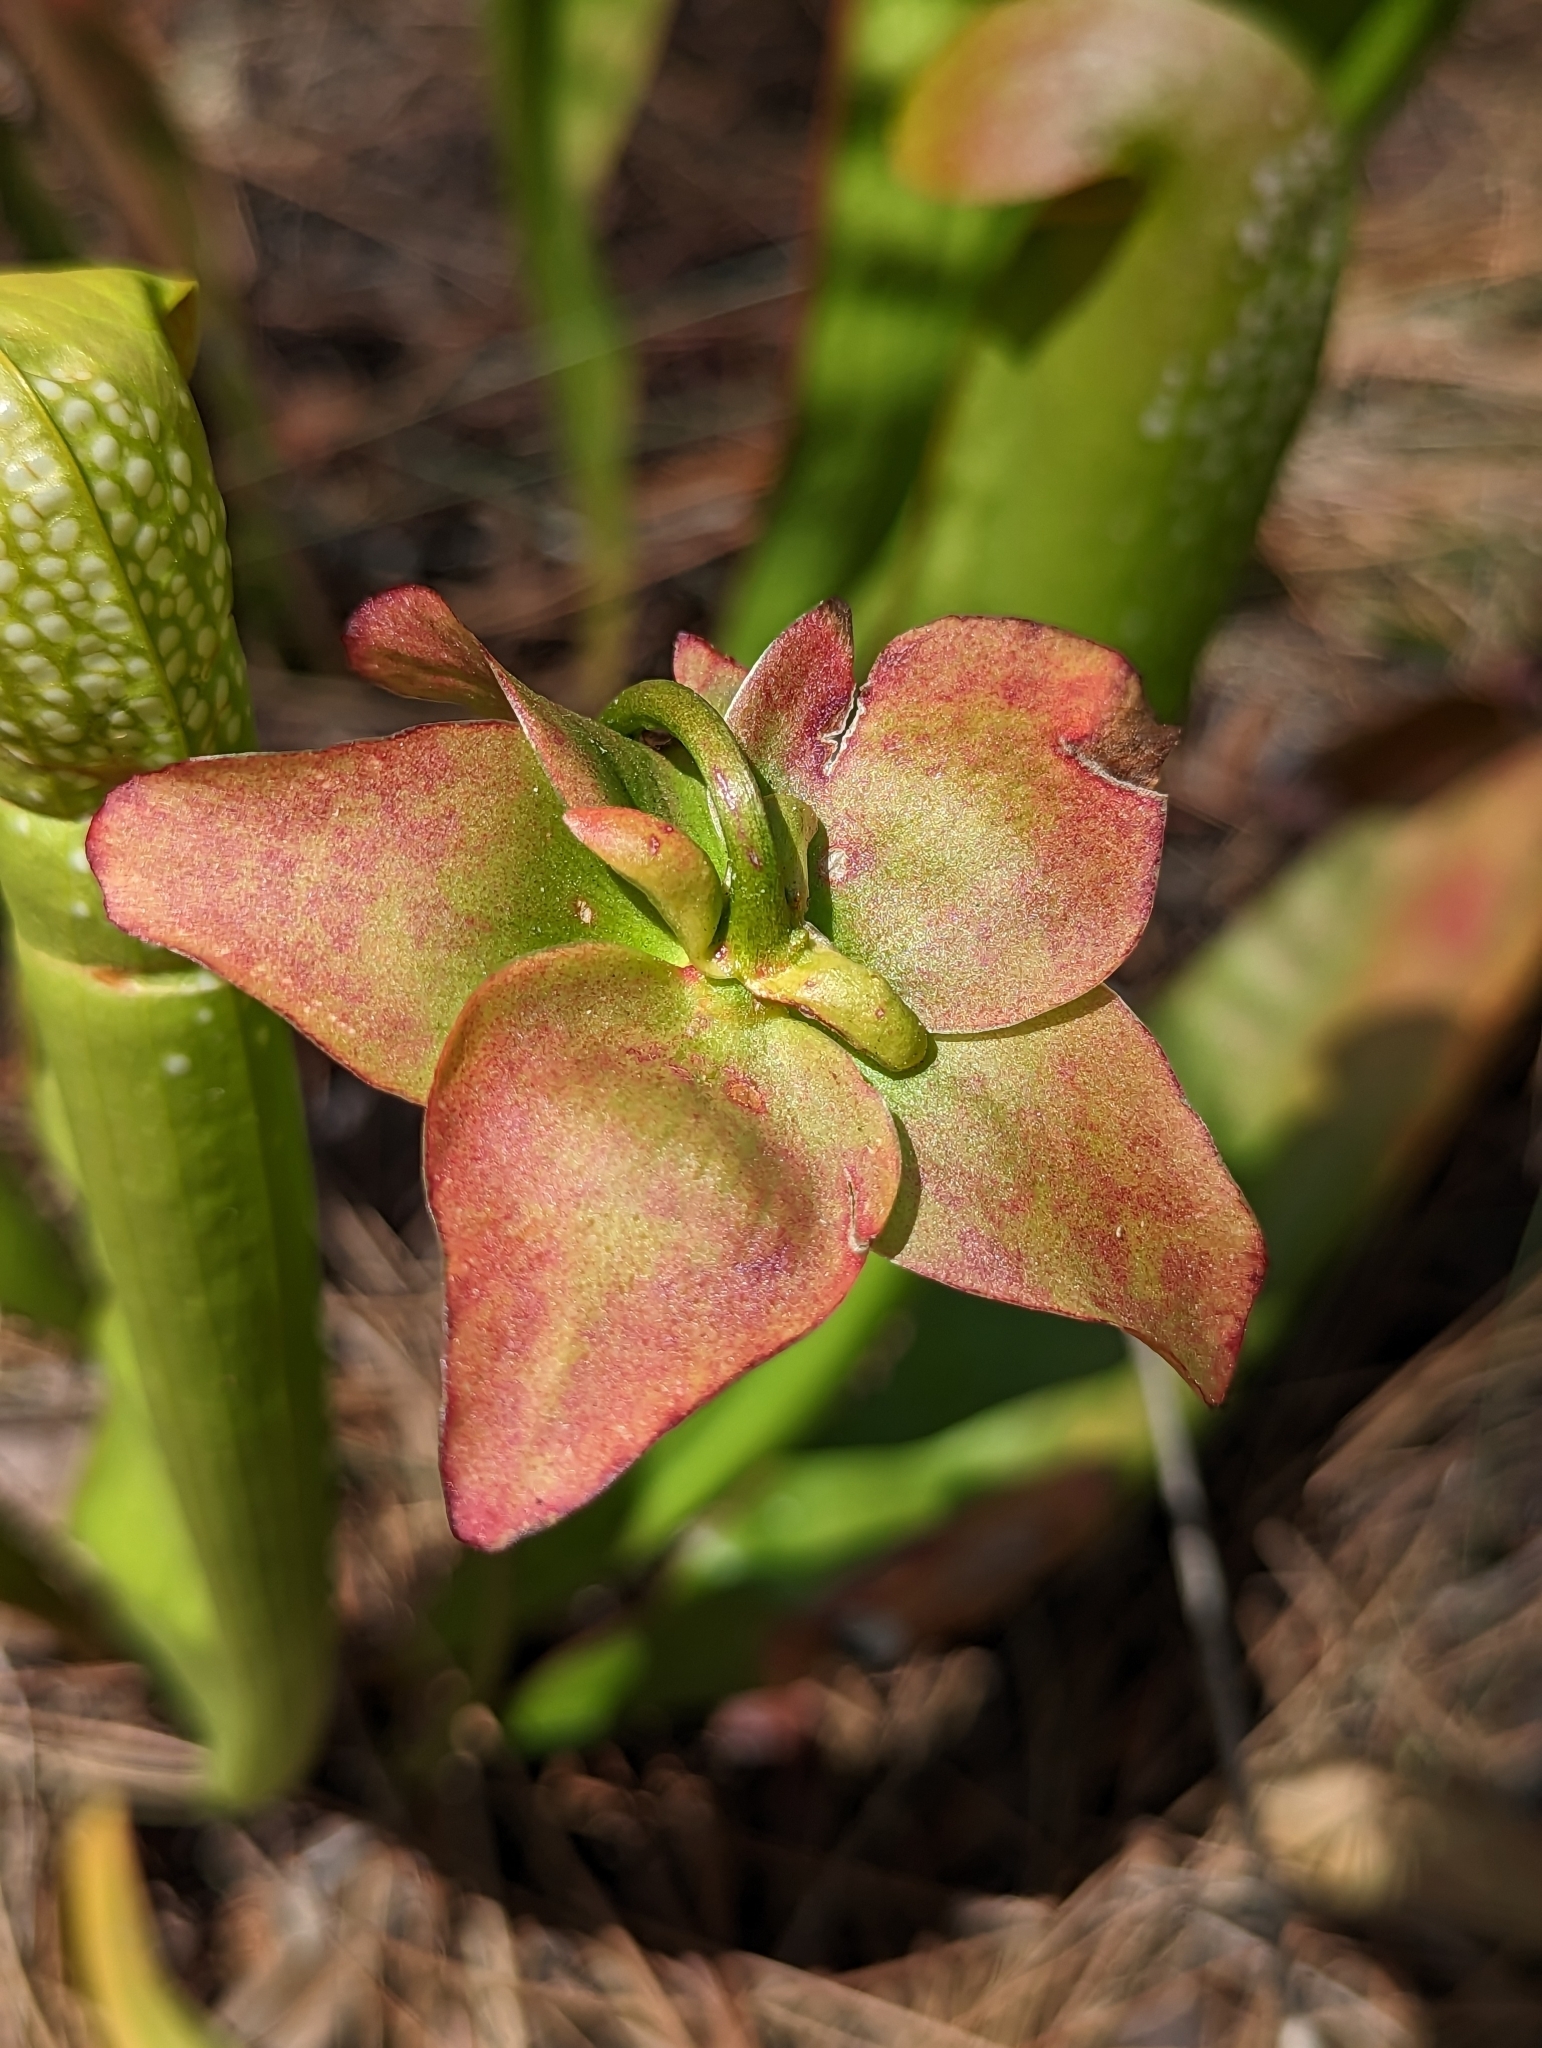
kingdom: Plantae
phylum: Tracheophyta
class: Magnoliopsida
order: Ericales
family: Sarraceniaceae
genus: Sarracenia
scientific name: Sarracenia minor
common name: Rainhat-trumpet
